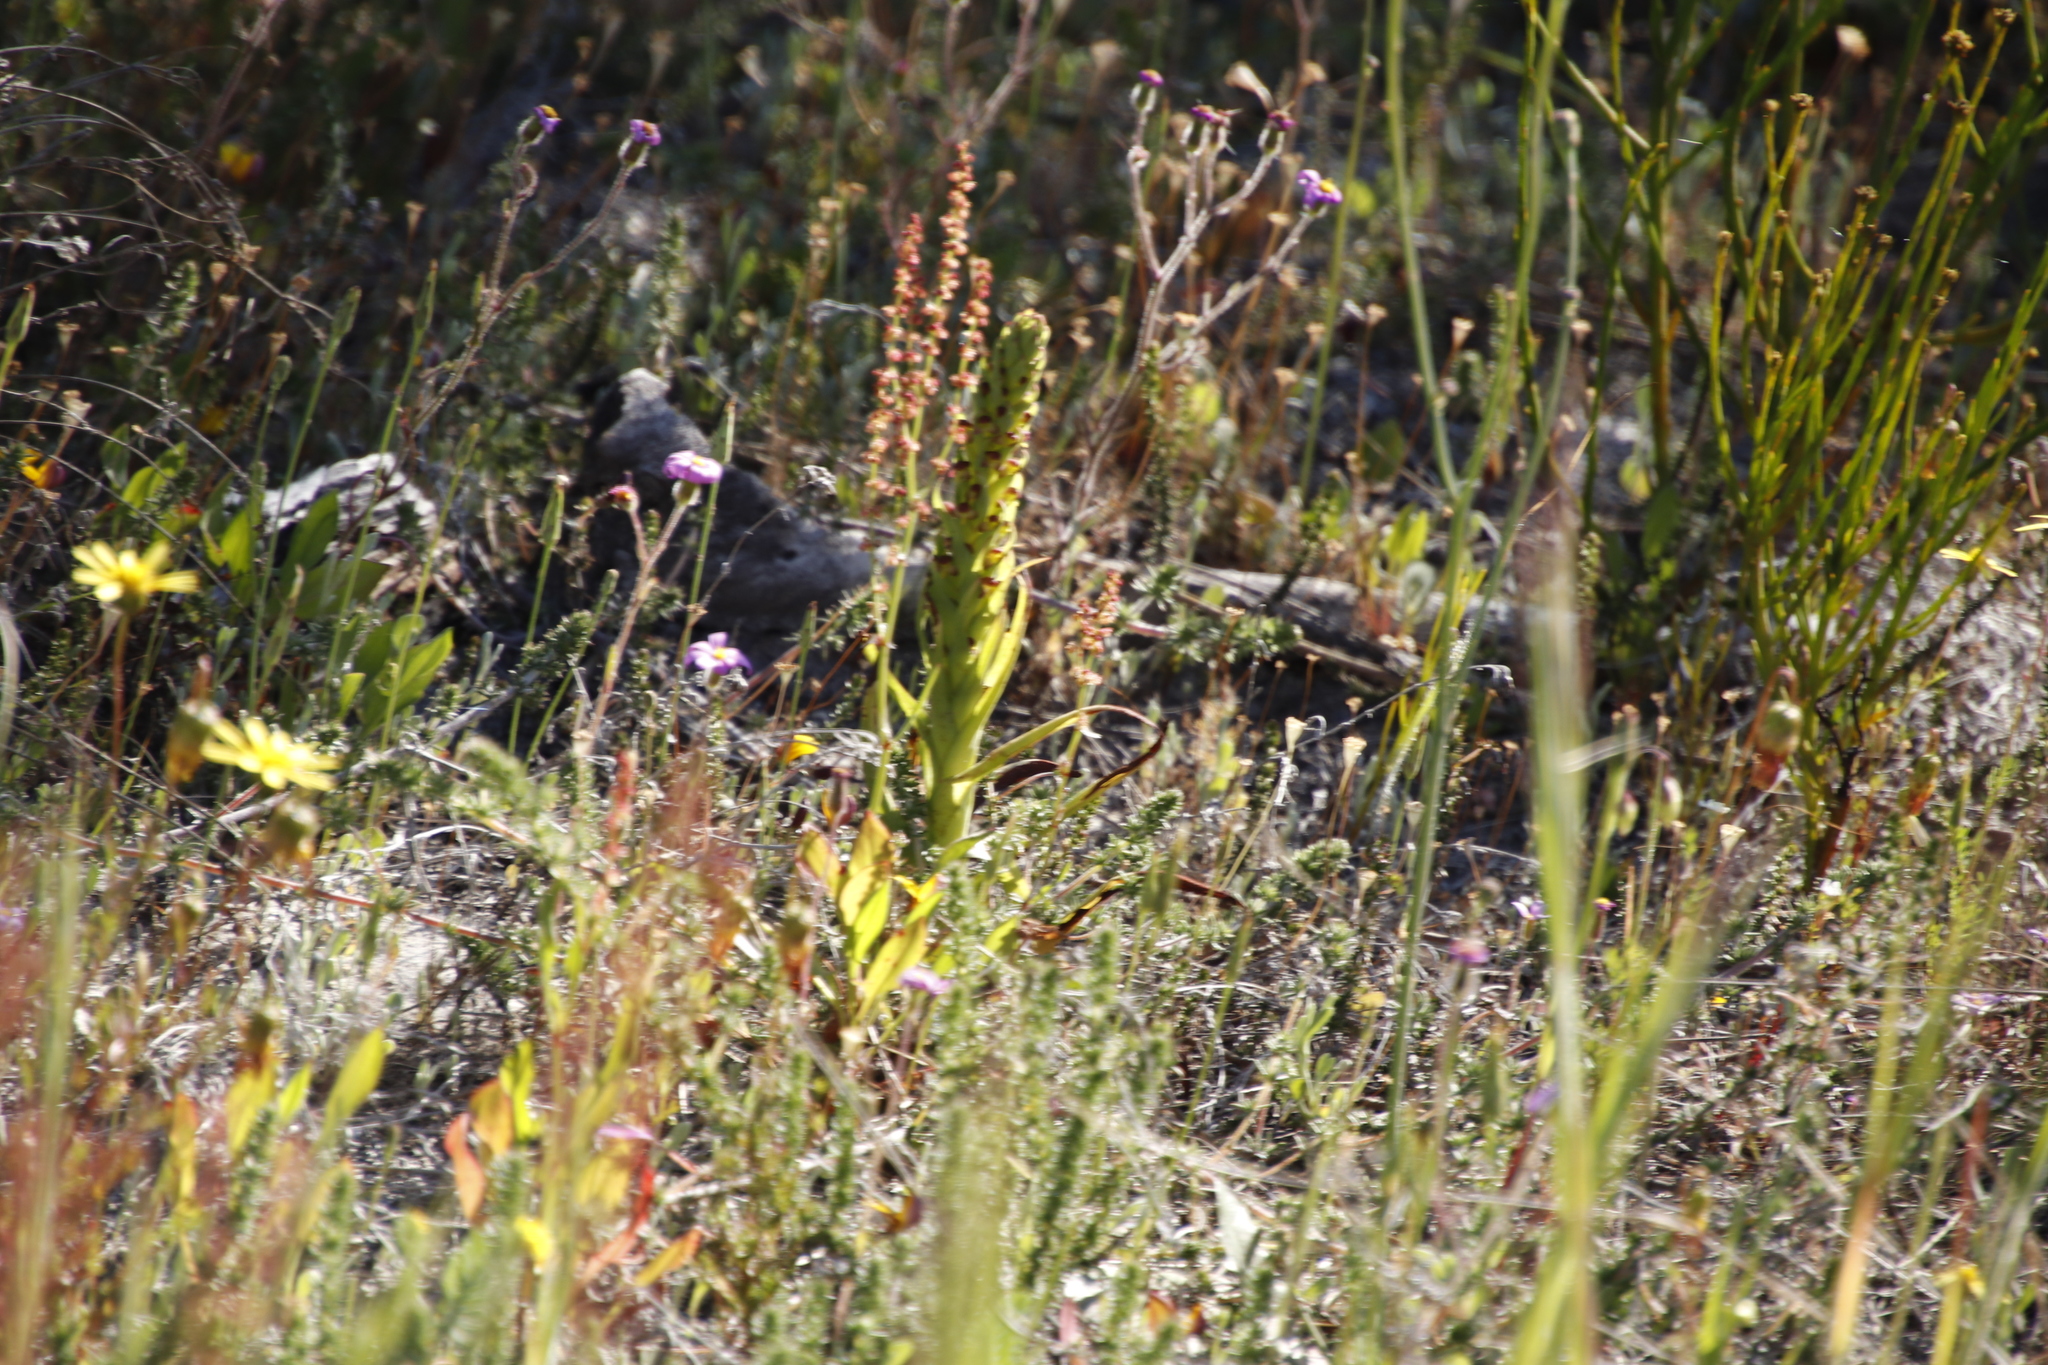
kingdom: Plantae
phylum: Tracheophyta
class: Liliopsida
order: Asparagales
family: Orchidaceae
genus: Disa
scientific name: Disa bracteata
